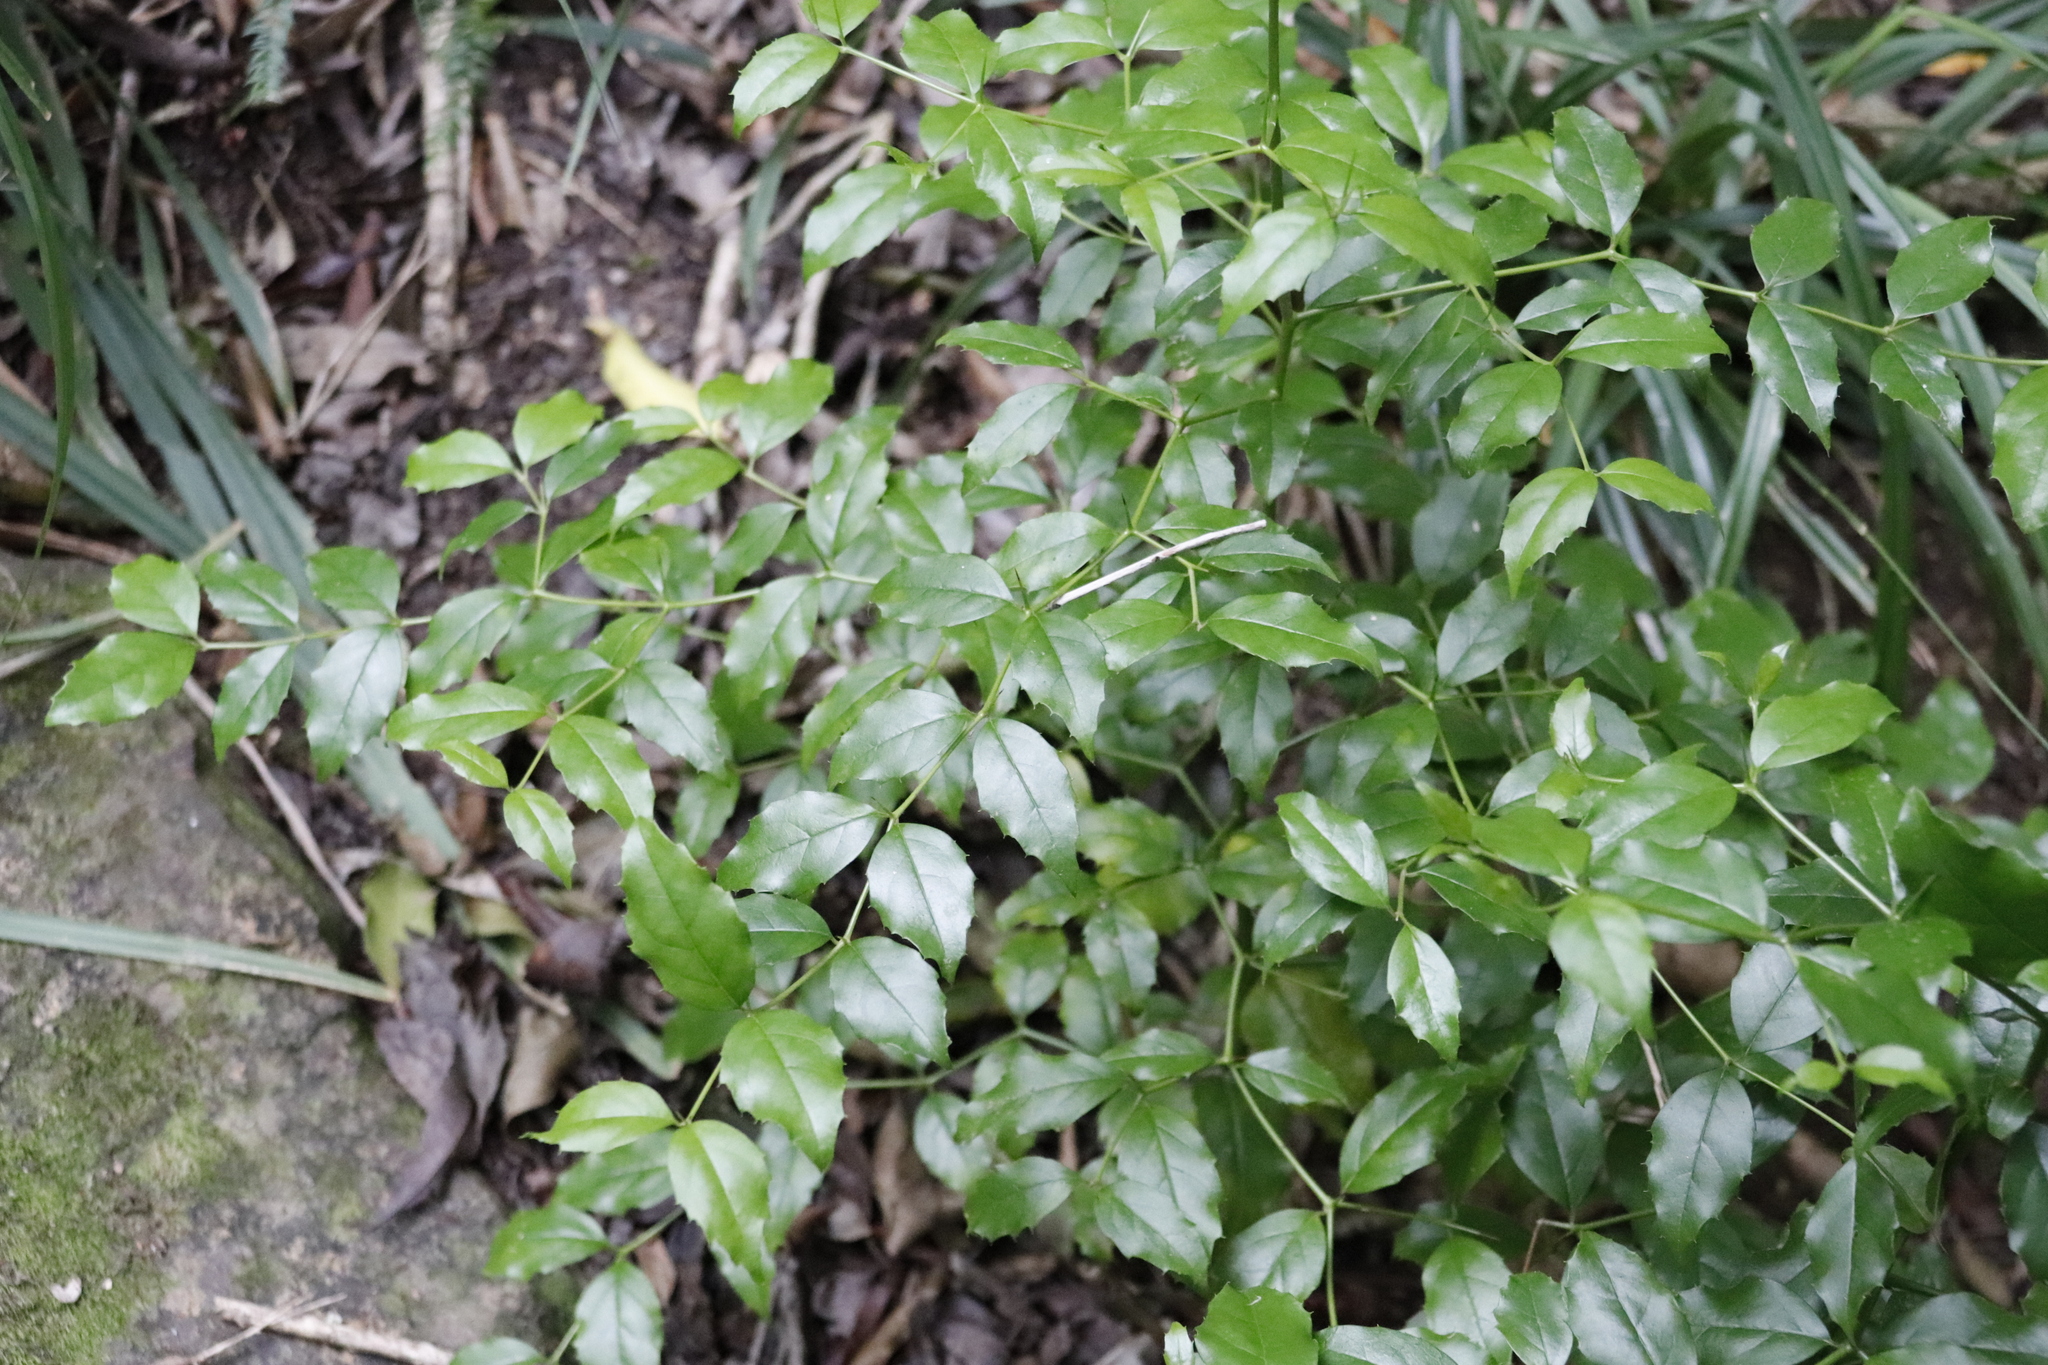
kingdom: Plantae
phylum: Tracheophyta
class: Magnoliopsida
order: Icacinales
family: Icacinaceae
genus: Cassinopsis
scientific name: Cassinopsis ilicifolia
